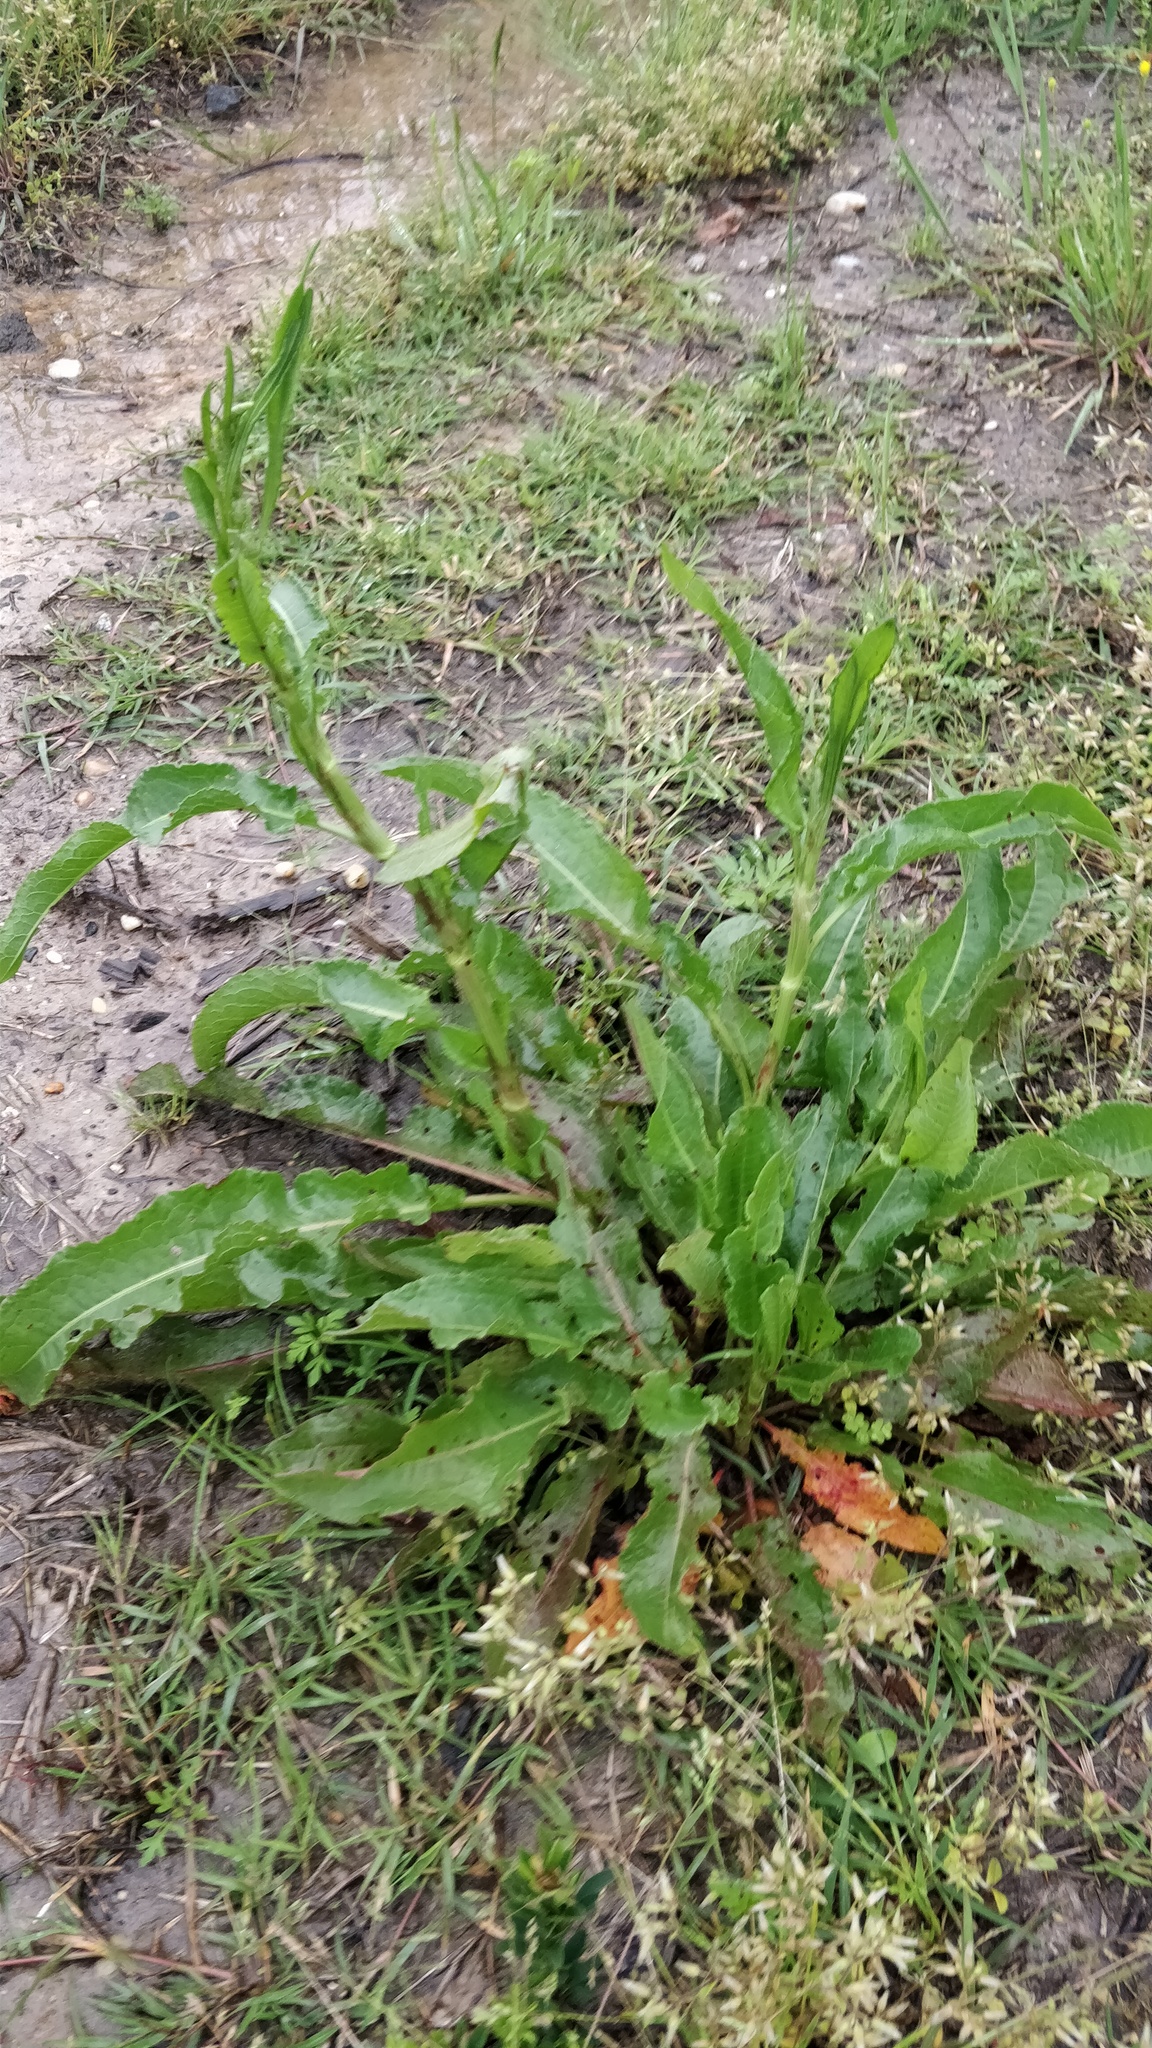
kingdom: Plantae
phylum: Tracheophyta
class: Magnoliopsida
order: Caryophyllales
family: Polygonaceae
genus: Rumex
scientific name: Rumex crispus
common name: Curled dock
